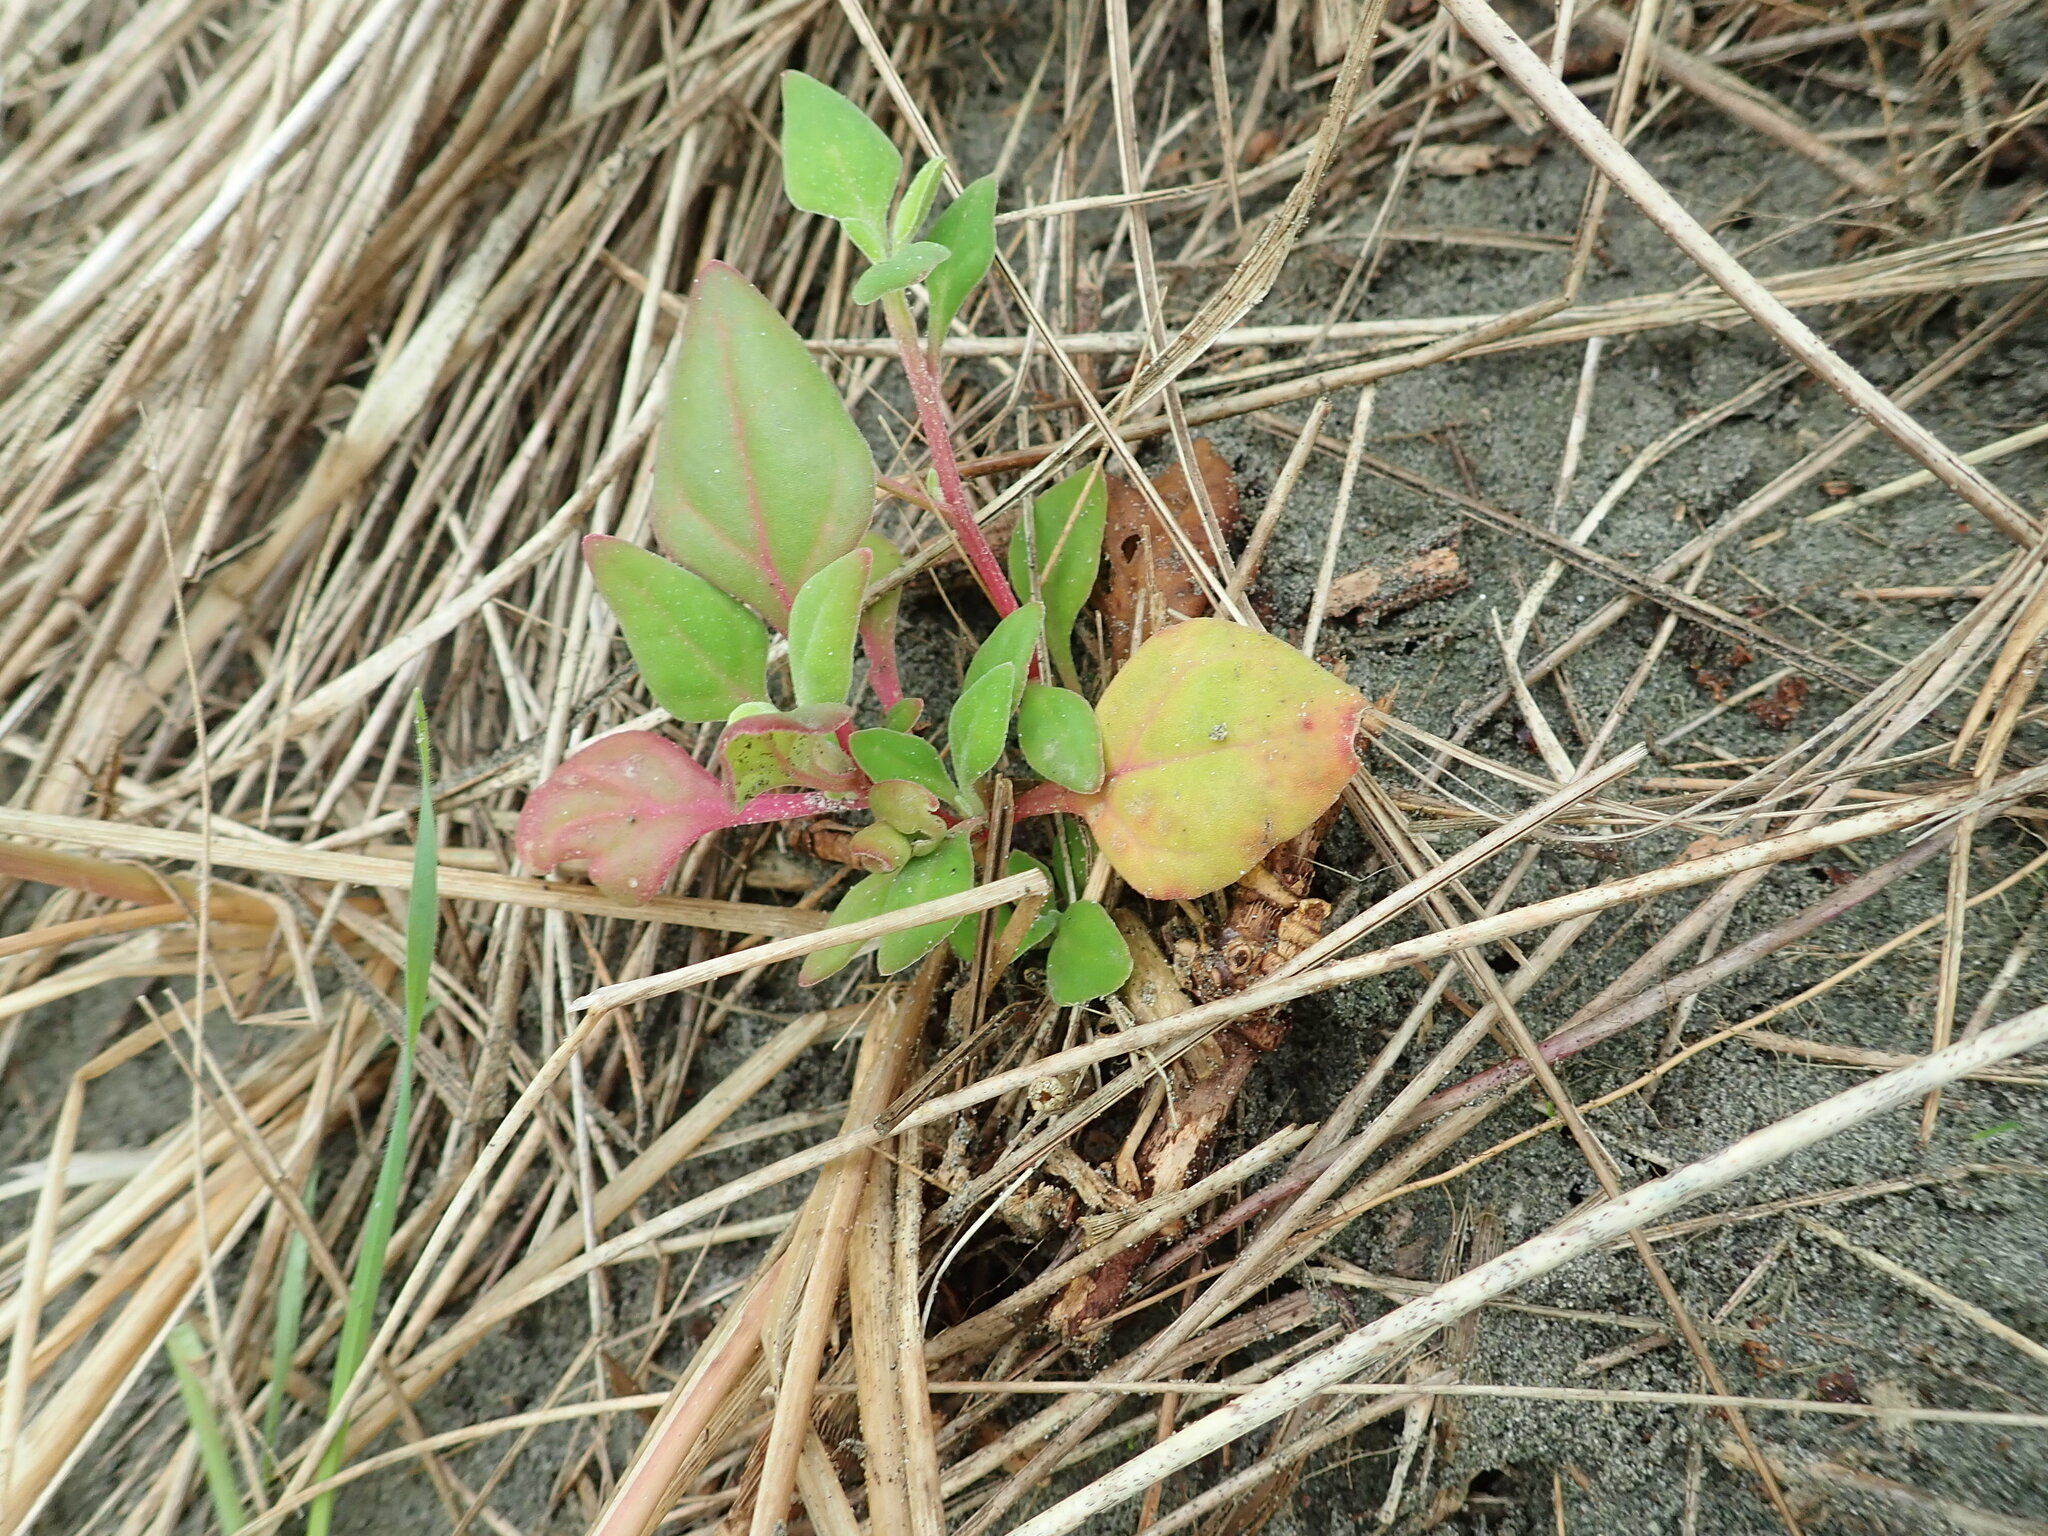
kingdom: Plantae
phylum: Tracheophyta
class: Magnoliopsida
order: Caryophyllales
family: Aizoaceae
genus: Tetragonia
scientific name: Tetragonia implexicoma
